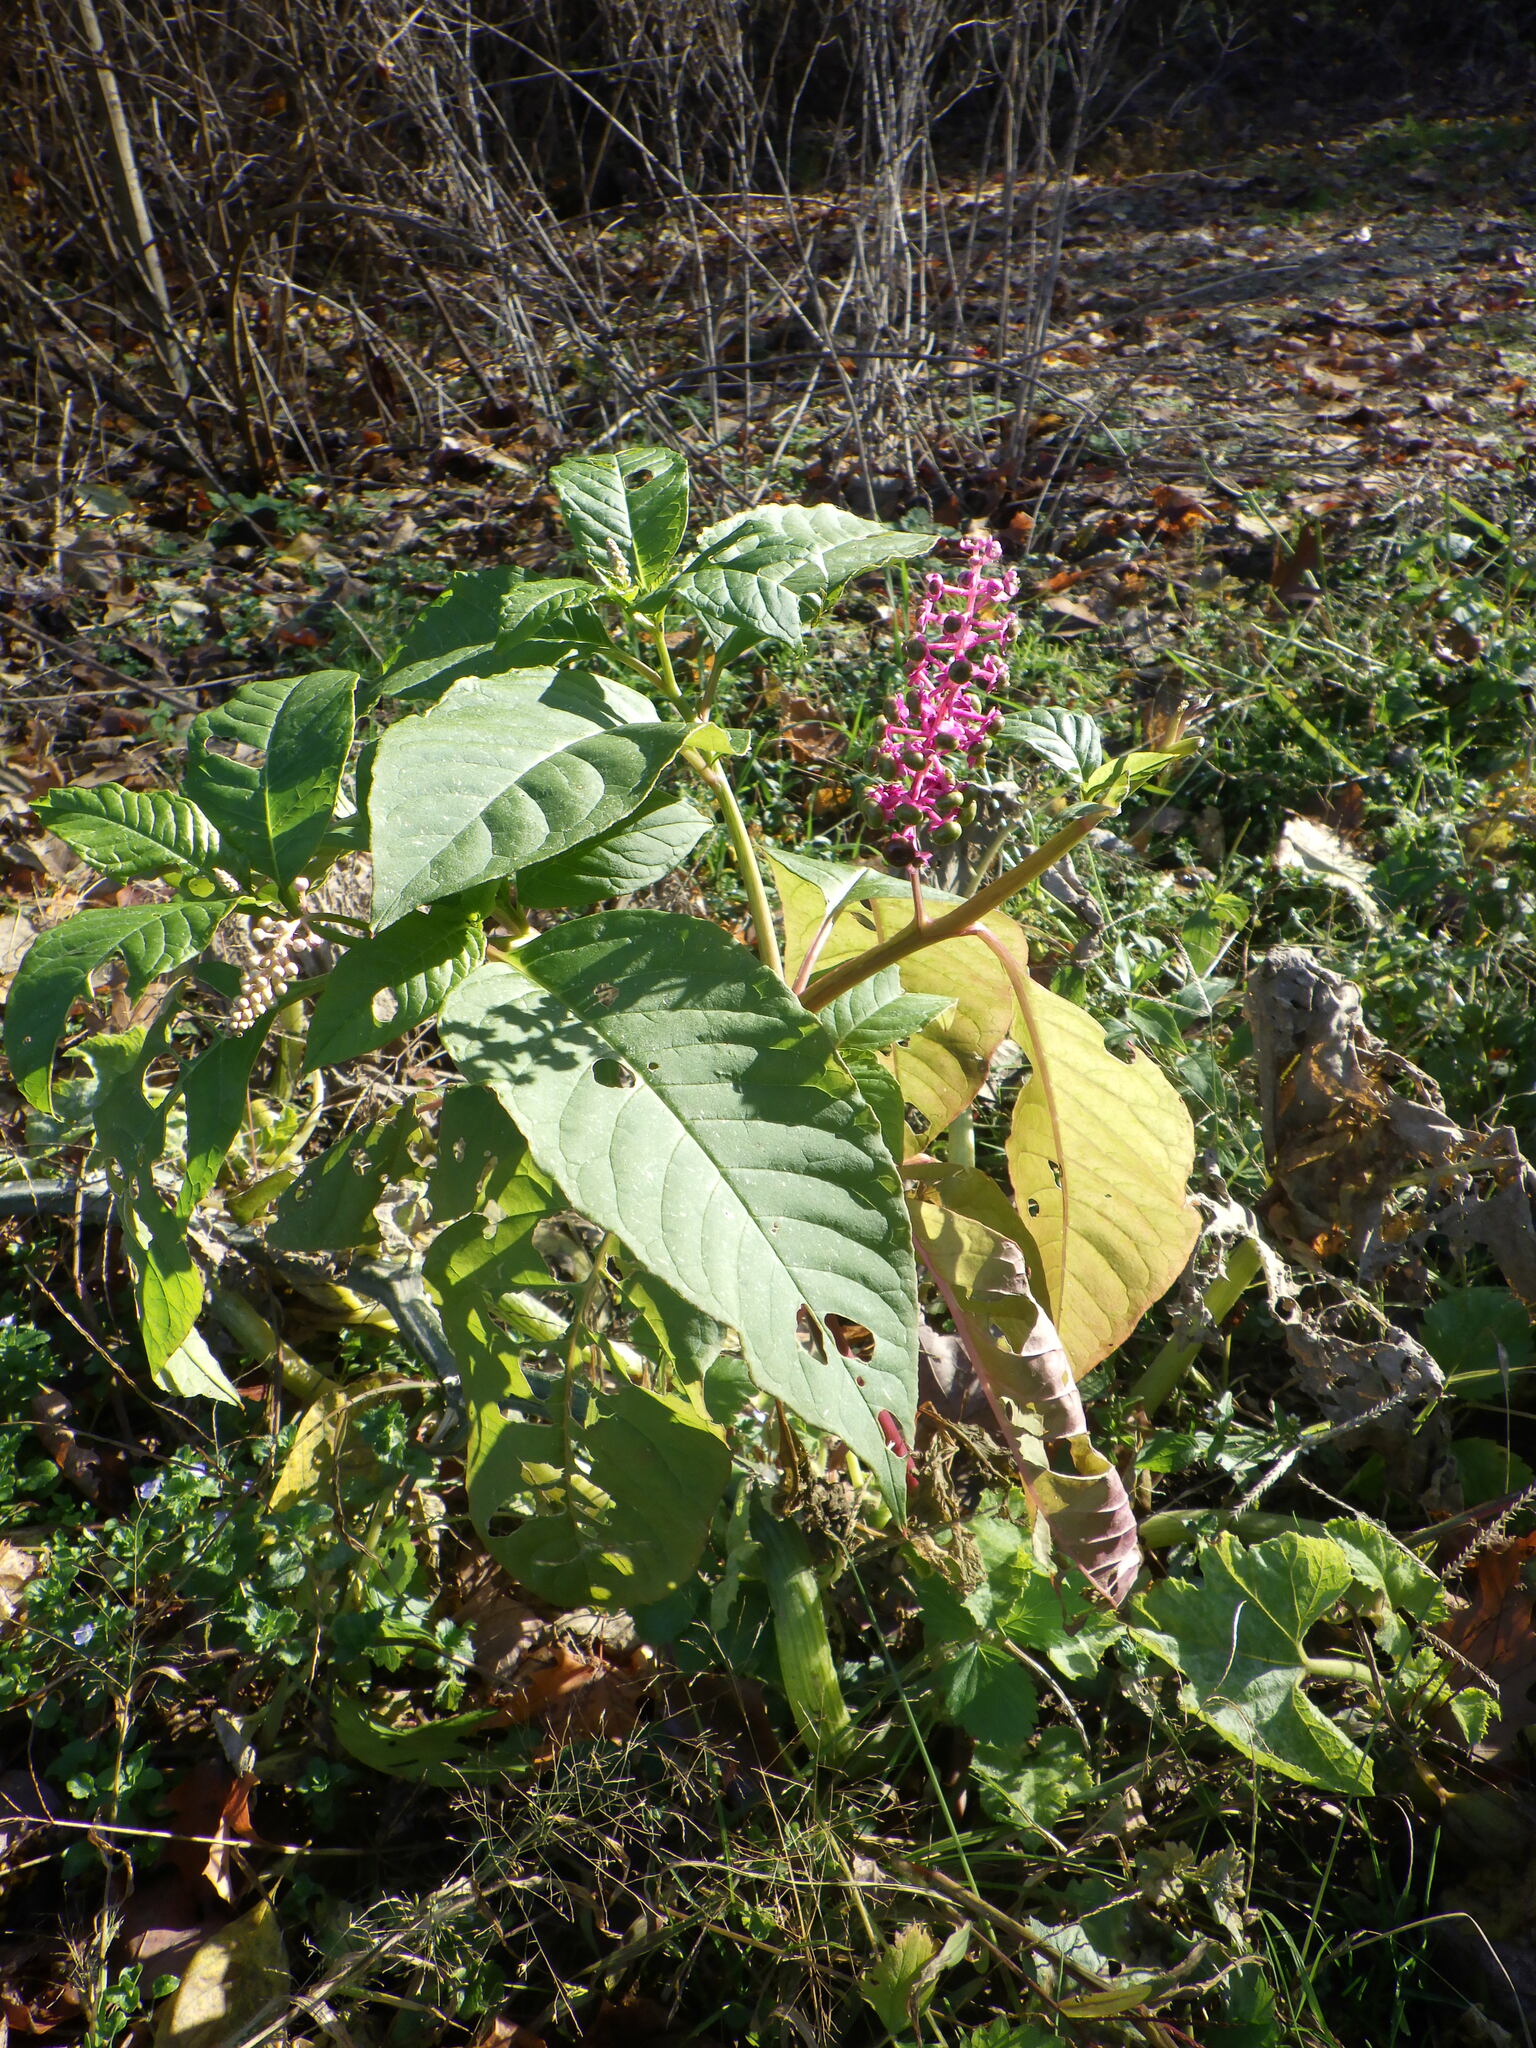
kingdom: Plantae
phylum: Tracheophyta
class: Magnoliopsida
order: Caryophyllales
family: Phytolaccaceae
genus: Phytolacca
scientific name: Phytolacca americana
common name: American pokeweed
